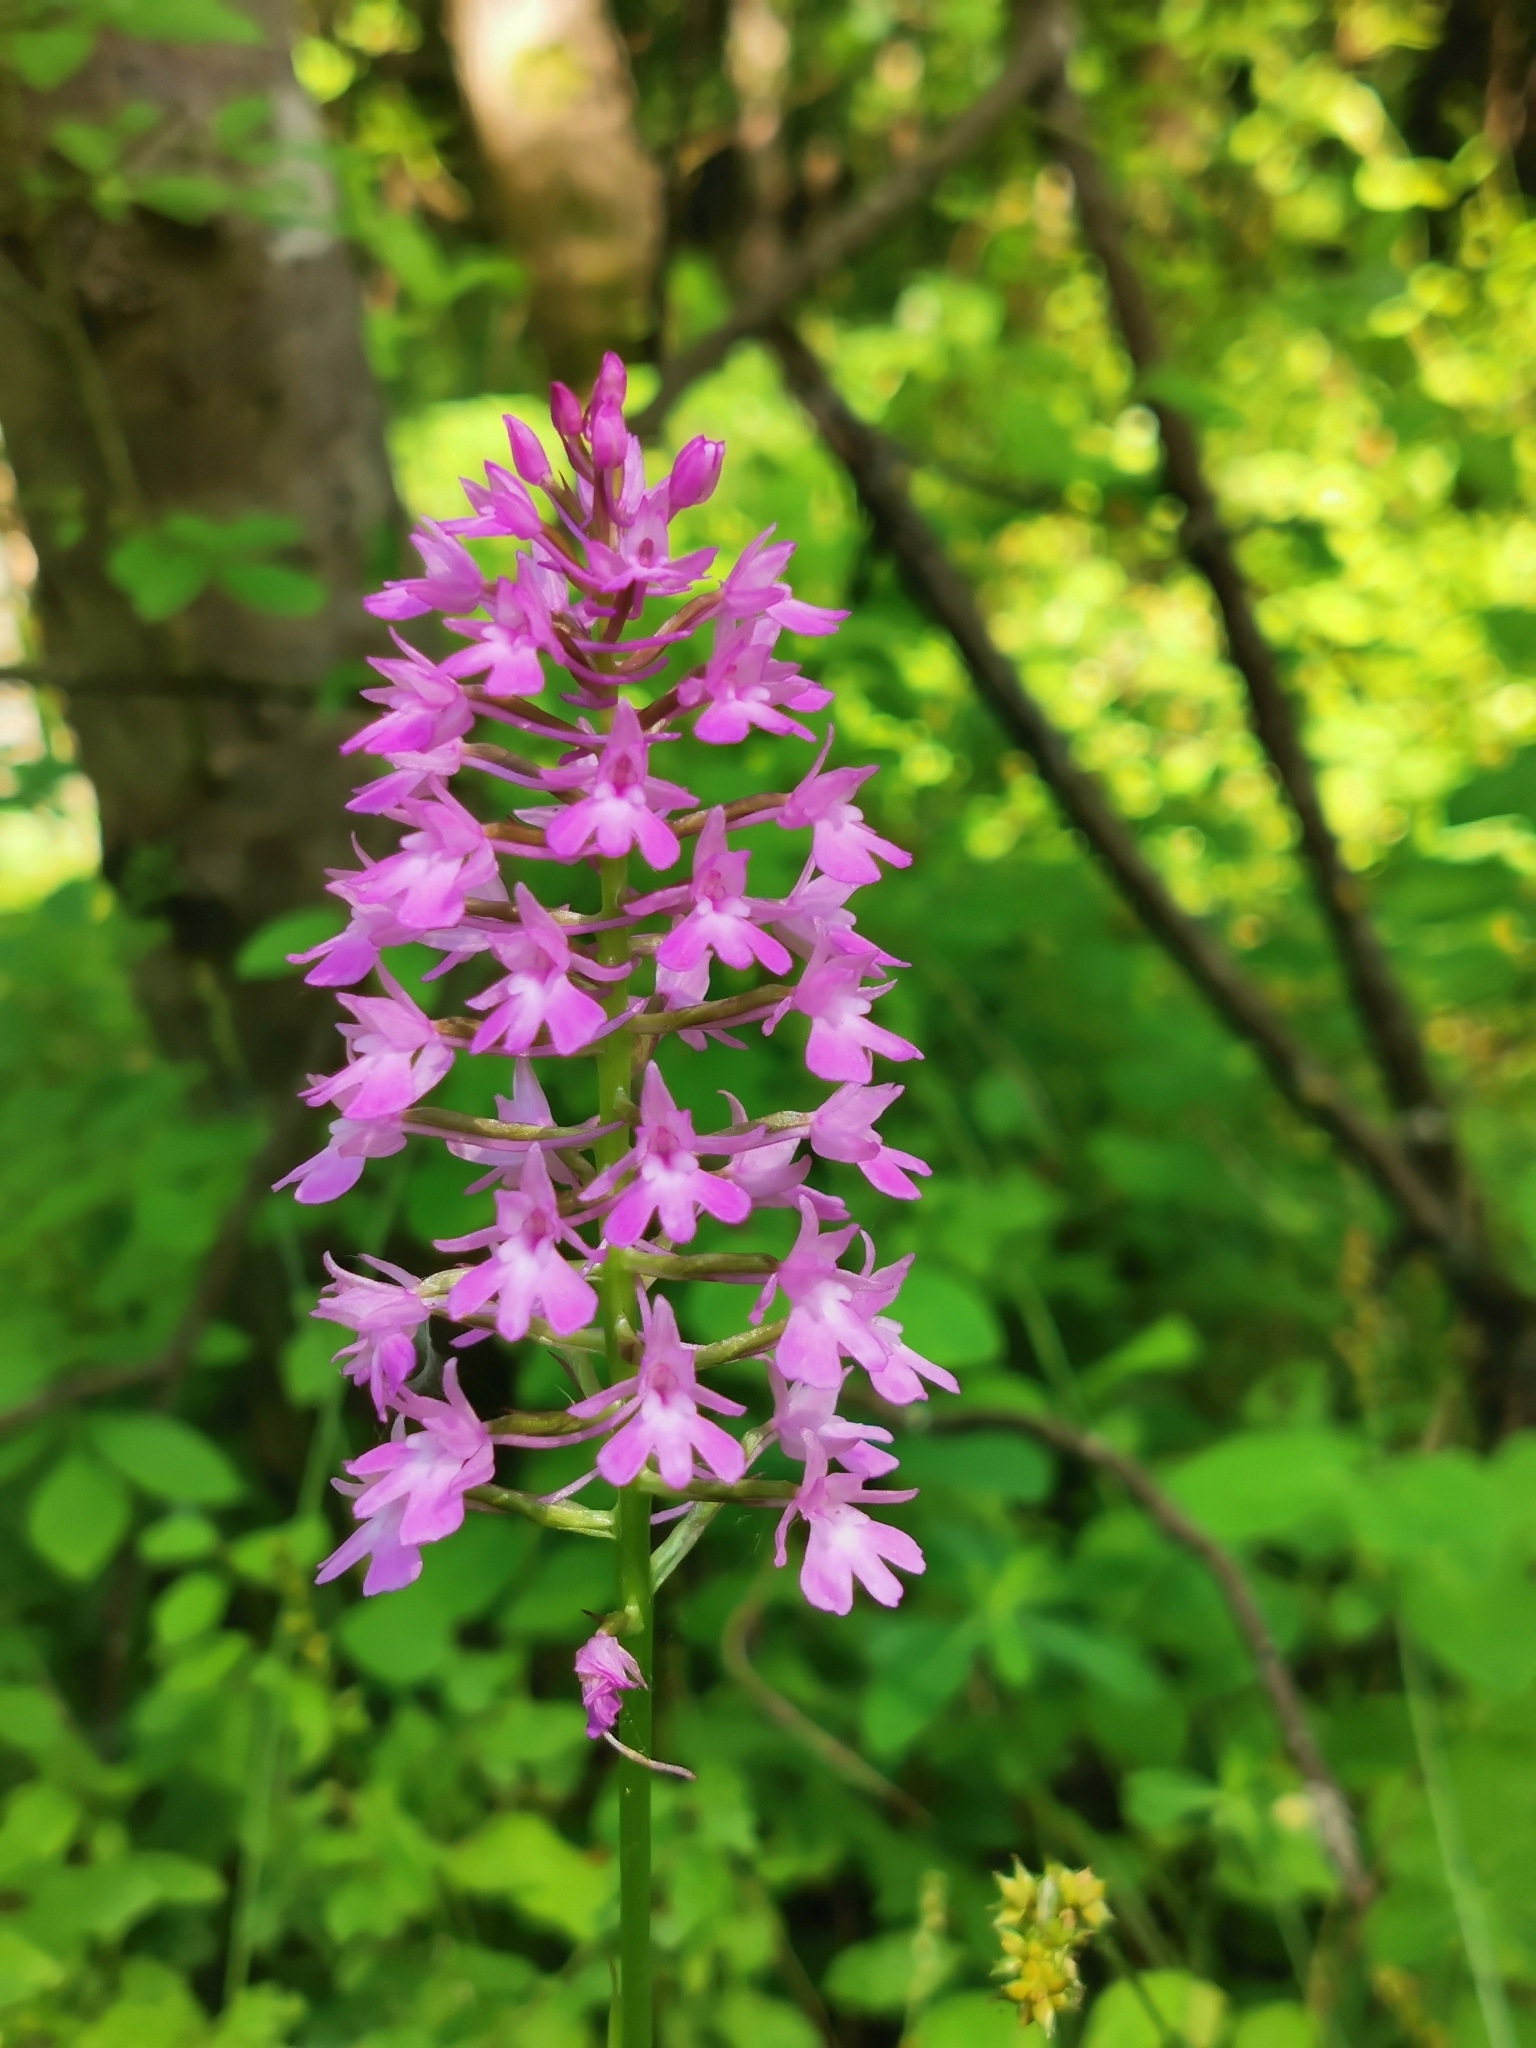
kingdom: Plantae
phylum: Tracheophyta
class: Liliopsida
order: Asparagales
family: Orchidaceae
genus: Anacamptis
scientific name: Anacamptis pyramidalis
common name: Pyramidal orchid
